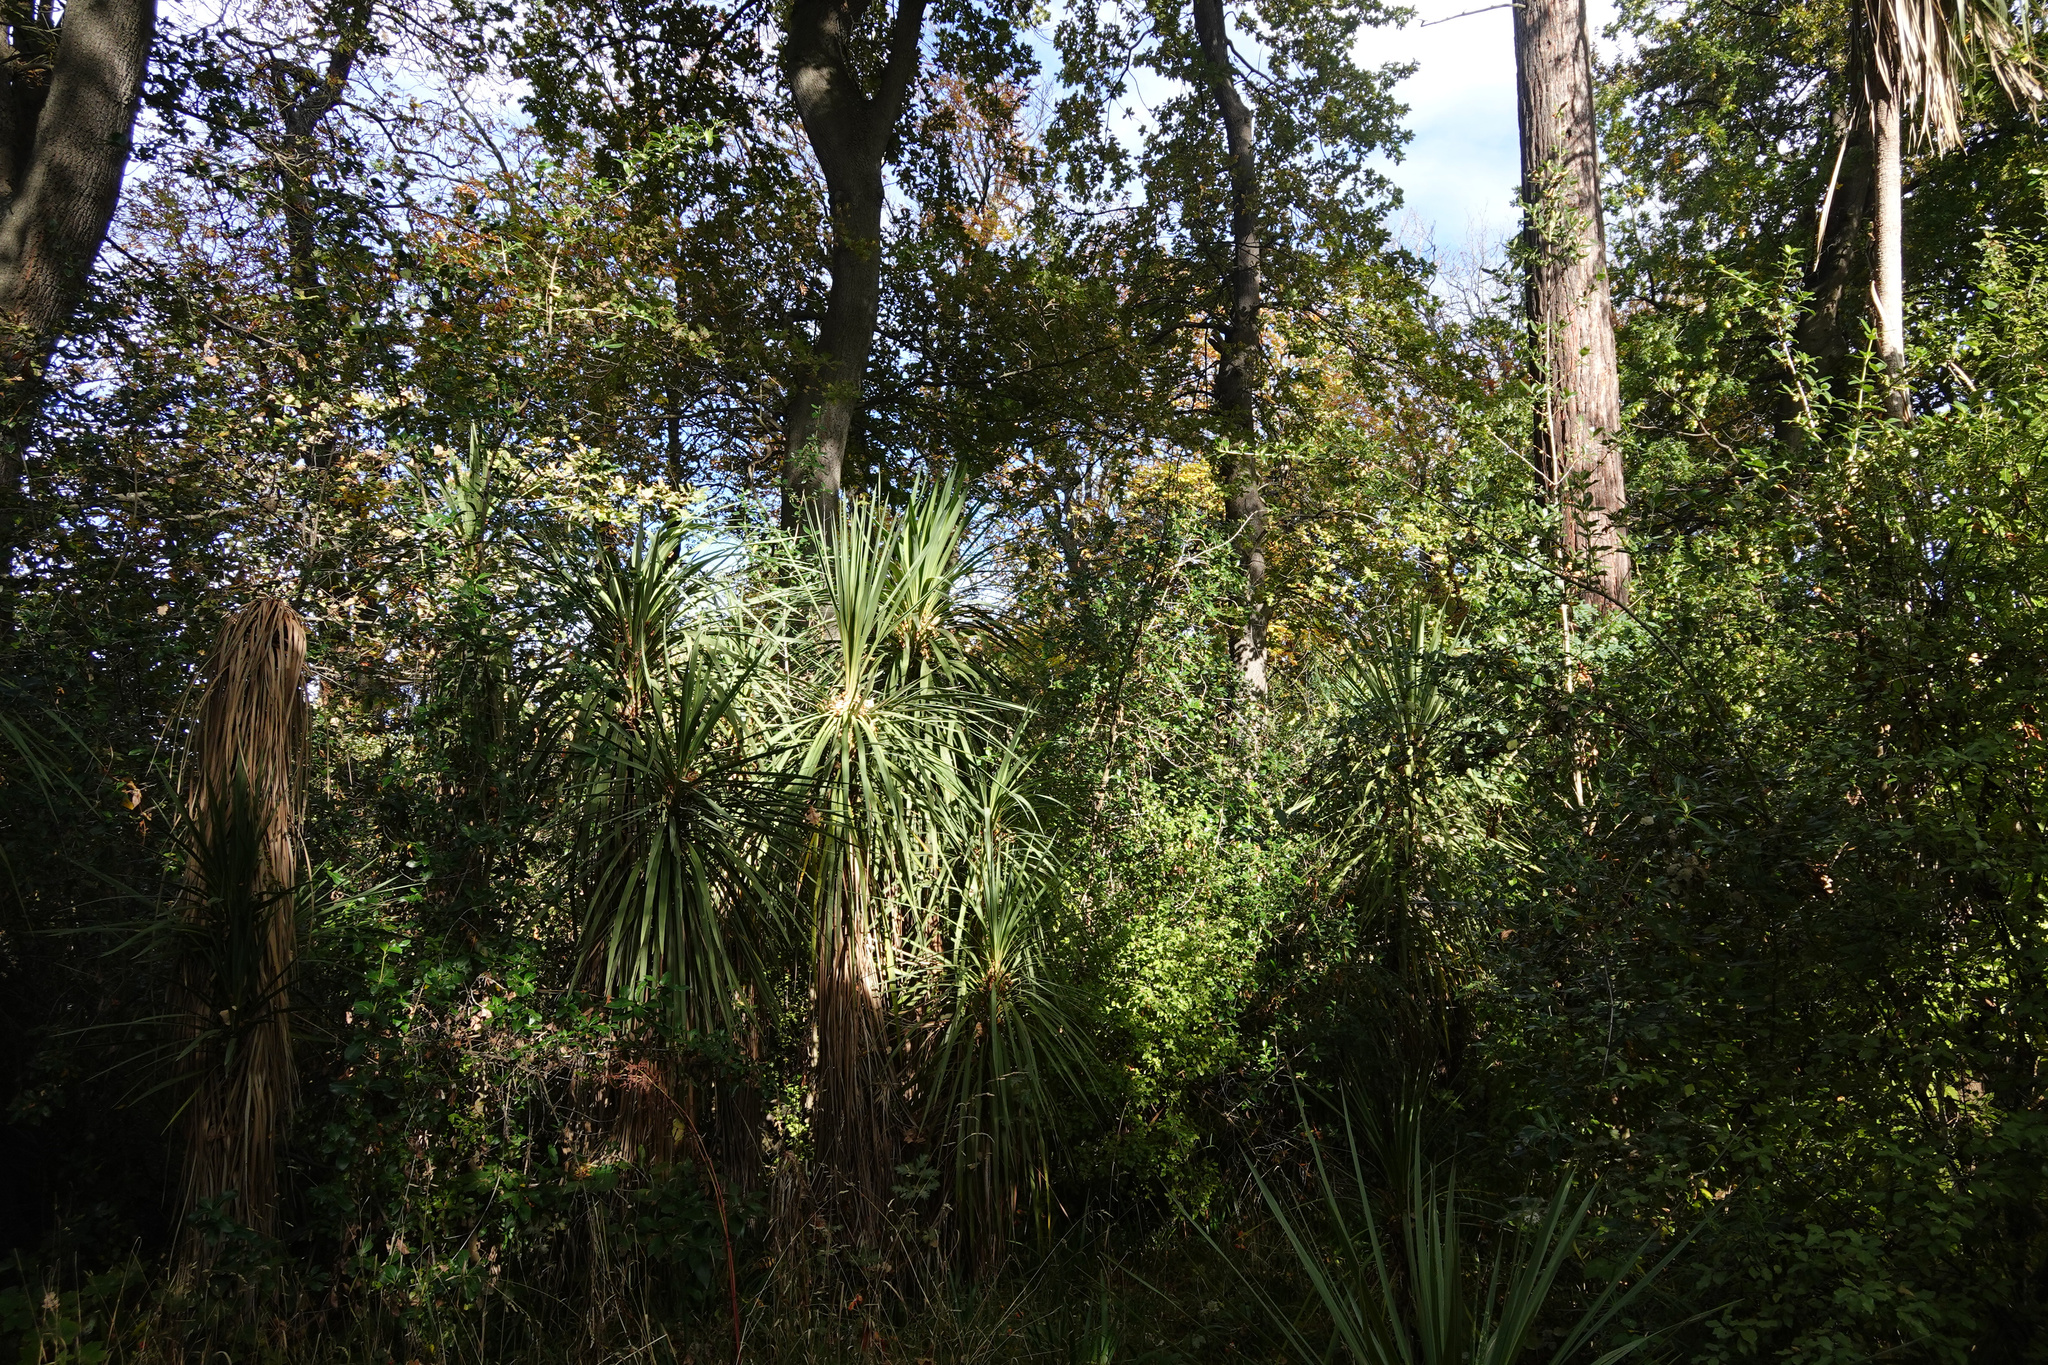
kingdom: Plantae
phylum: Tracheophyta
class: Liliopsida
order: Asparagales
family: Asparagaceae
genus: Cordyline
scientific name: Cordyline australis
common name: Cabbage-palm
